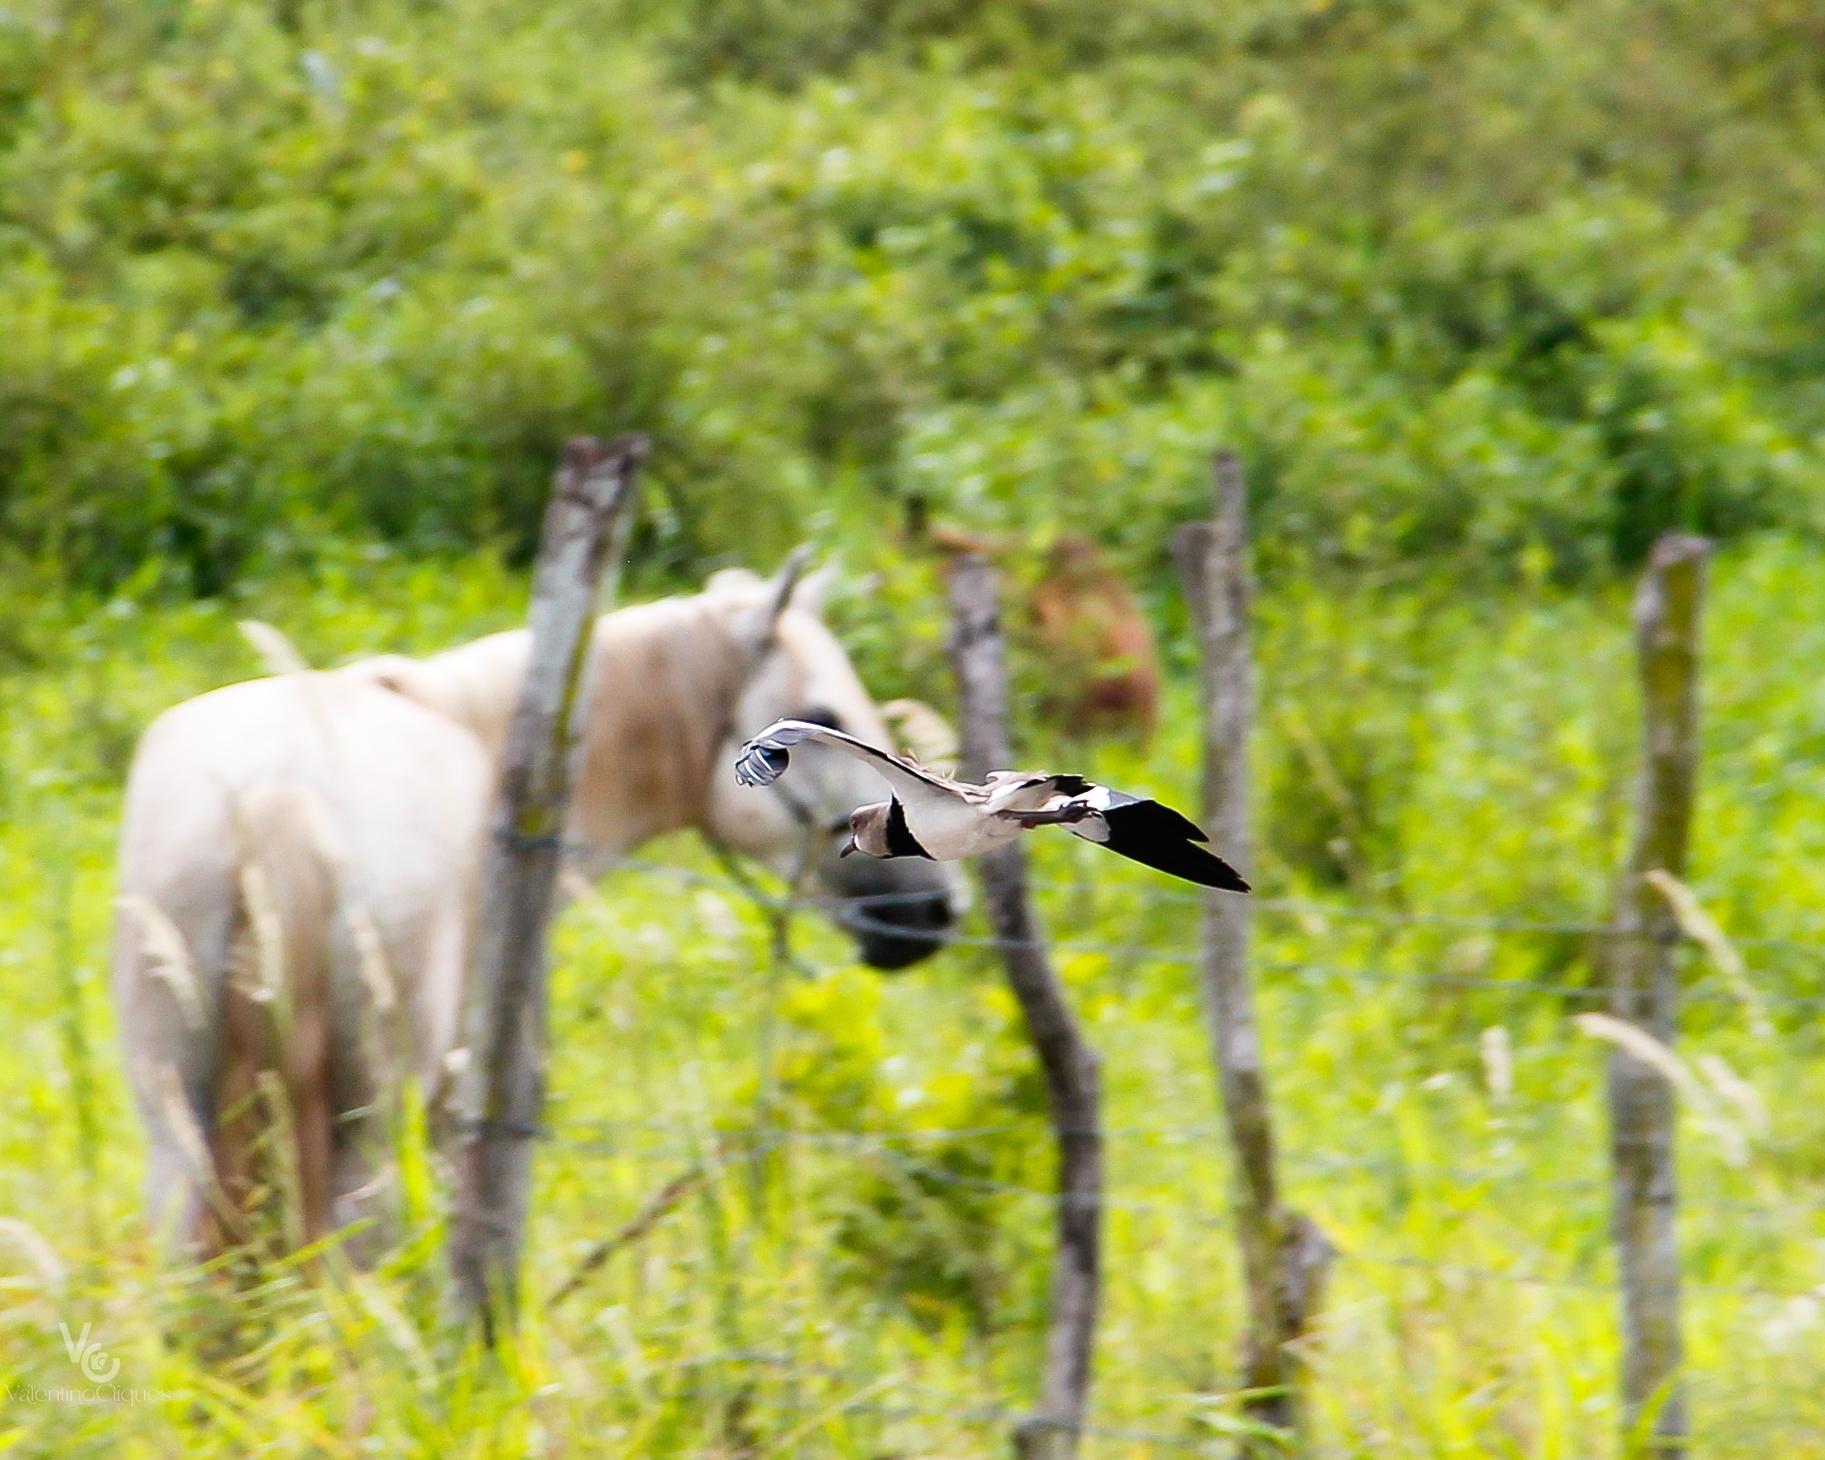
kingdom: Animalia
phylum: Chordata
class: Aves
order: Charadriiformes
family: Charadriidae
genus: Vanellus
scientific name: Vanellus chilensis
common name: Southern lapwing
